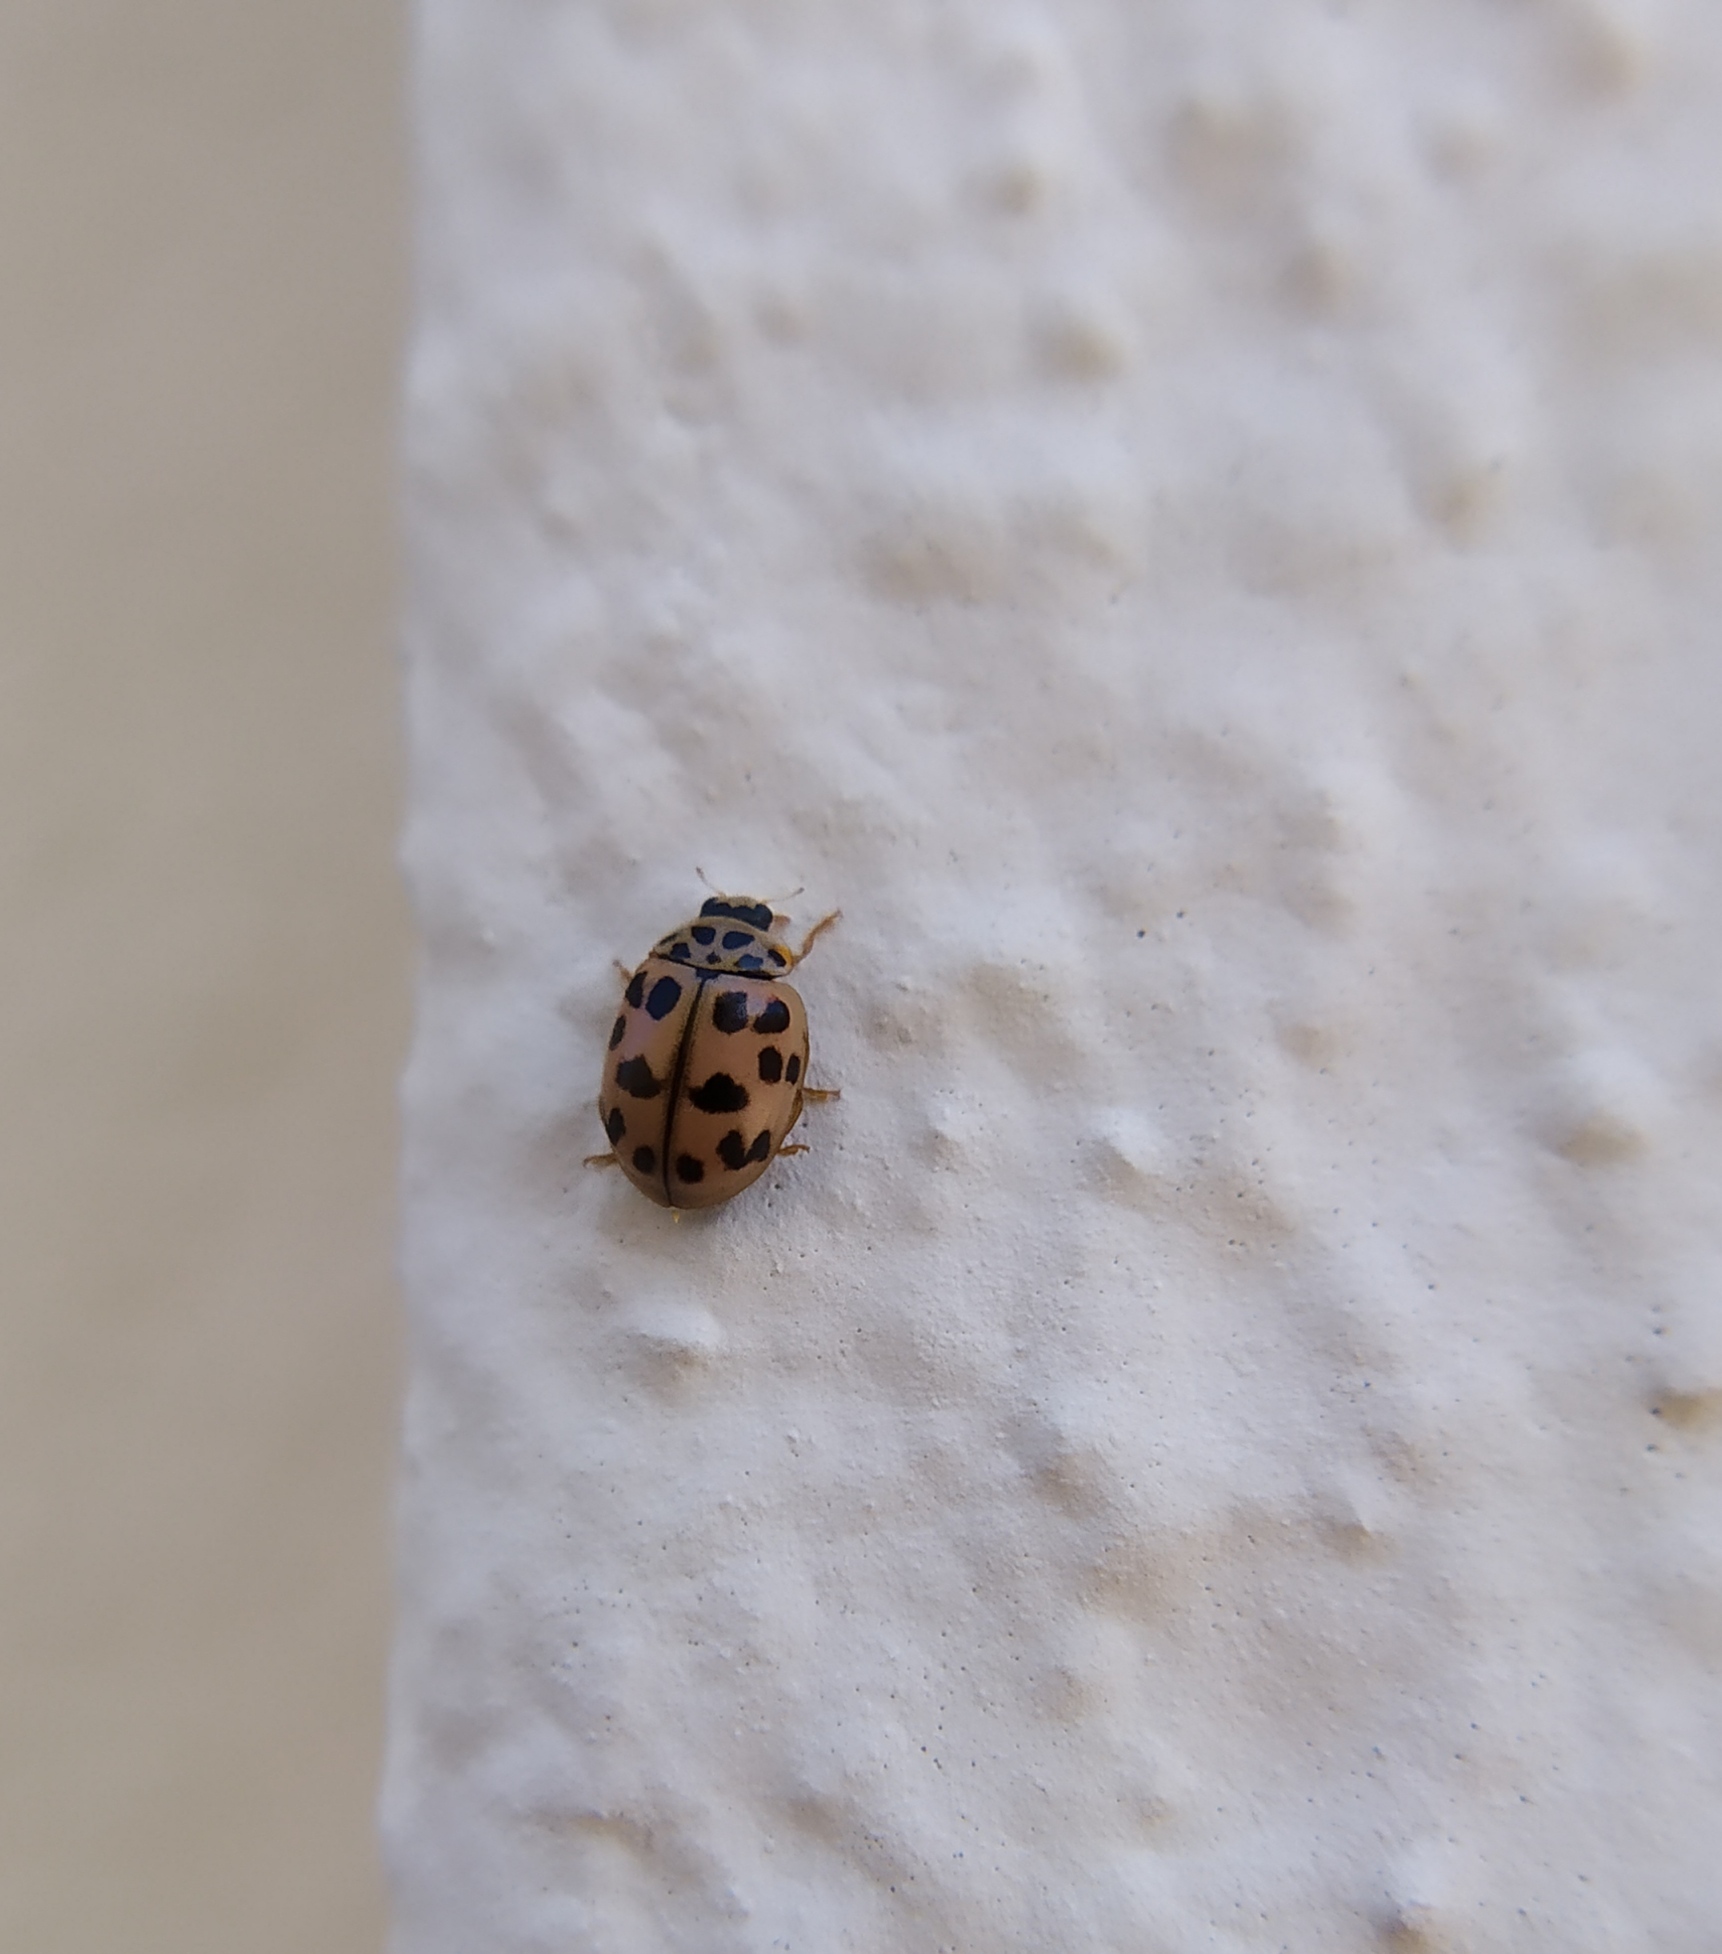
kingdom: Animalia
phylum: Arthropoda
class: Insecta
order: Coleoptera
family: Coccinellidae
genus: Oenopia
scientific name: Oenopia conglobata
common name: Ladybird beetle
